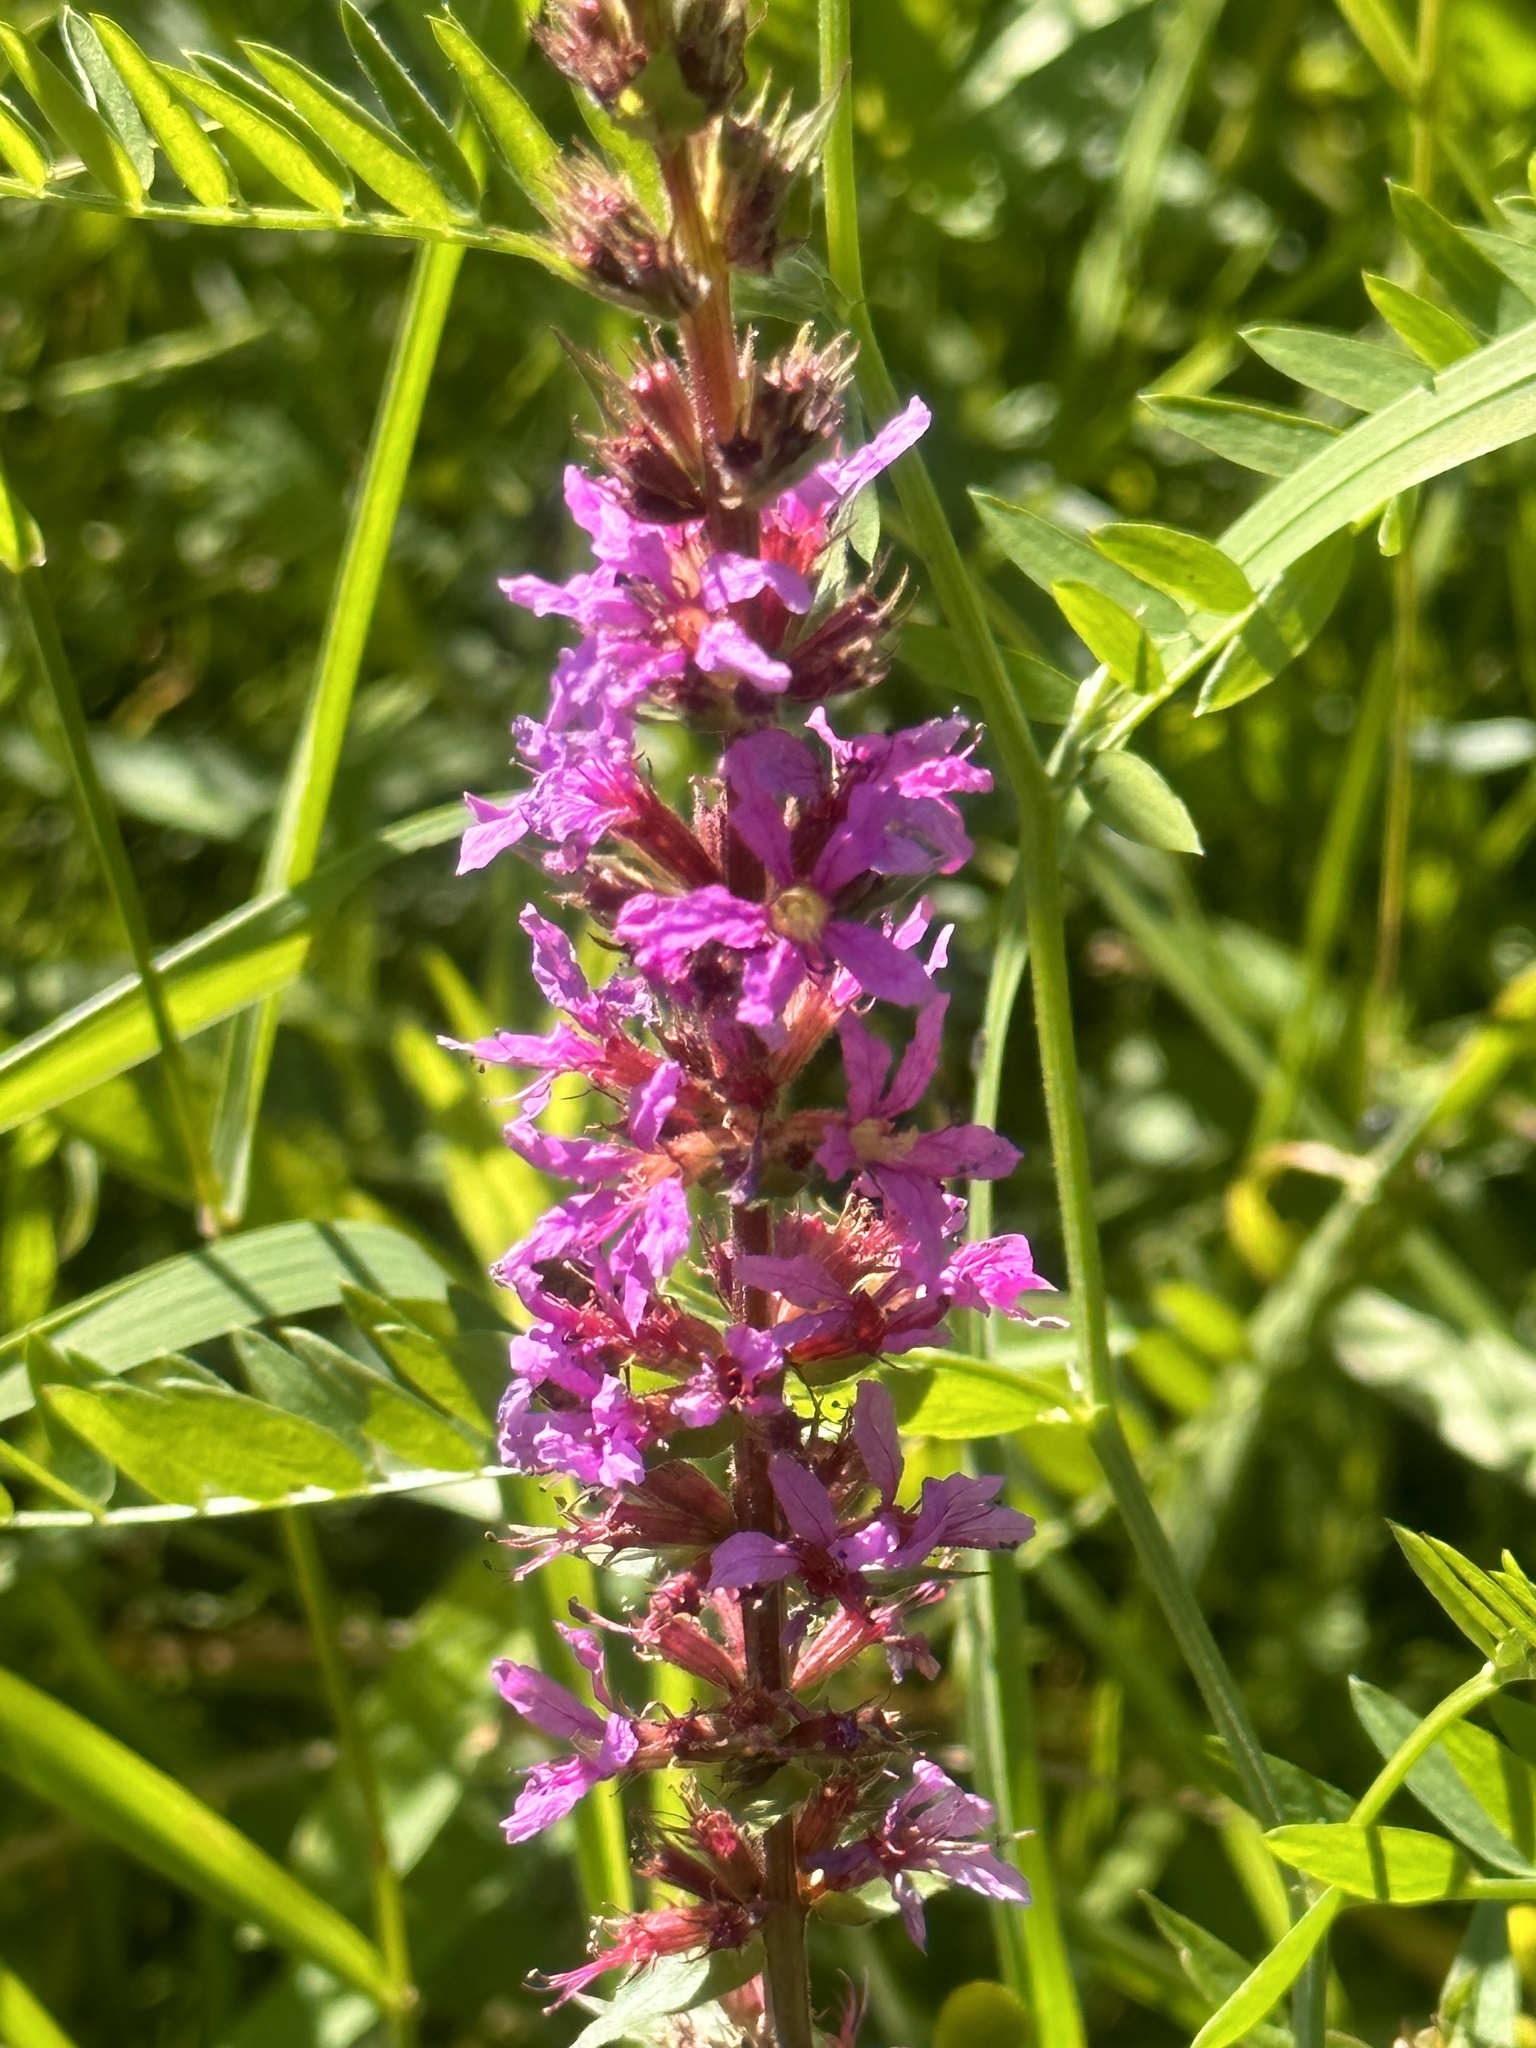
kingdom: Plantae
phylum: Tracheophyta
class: Magnoliopsida
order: Myrtales
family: Lythraceae
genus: Lythrum
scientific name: Lythrum salicaria
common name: Purple loosestrife
